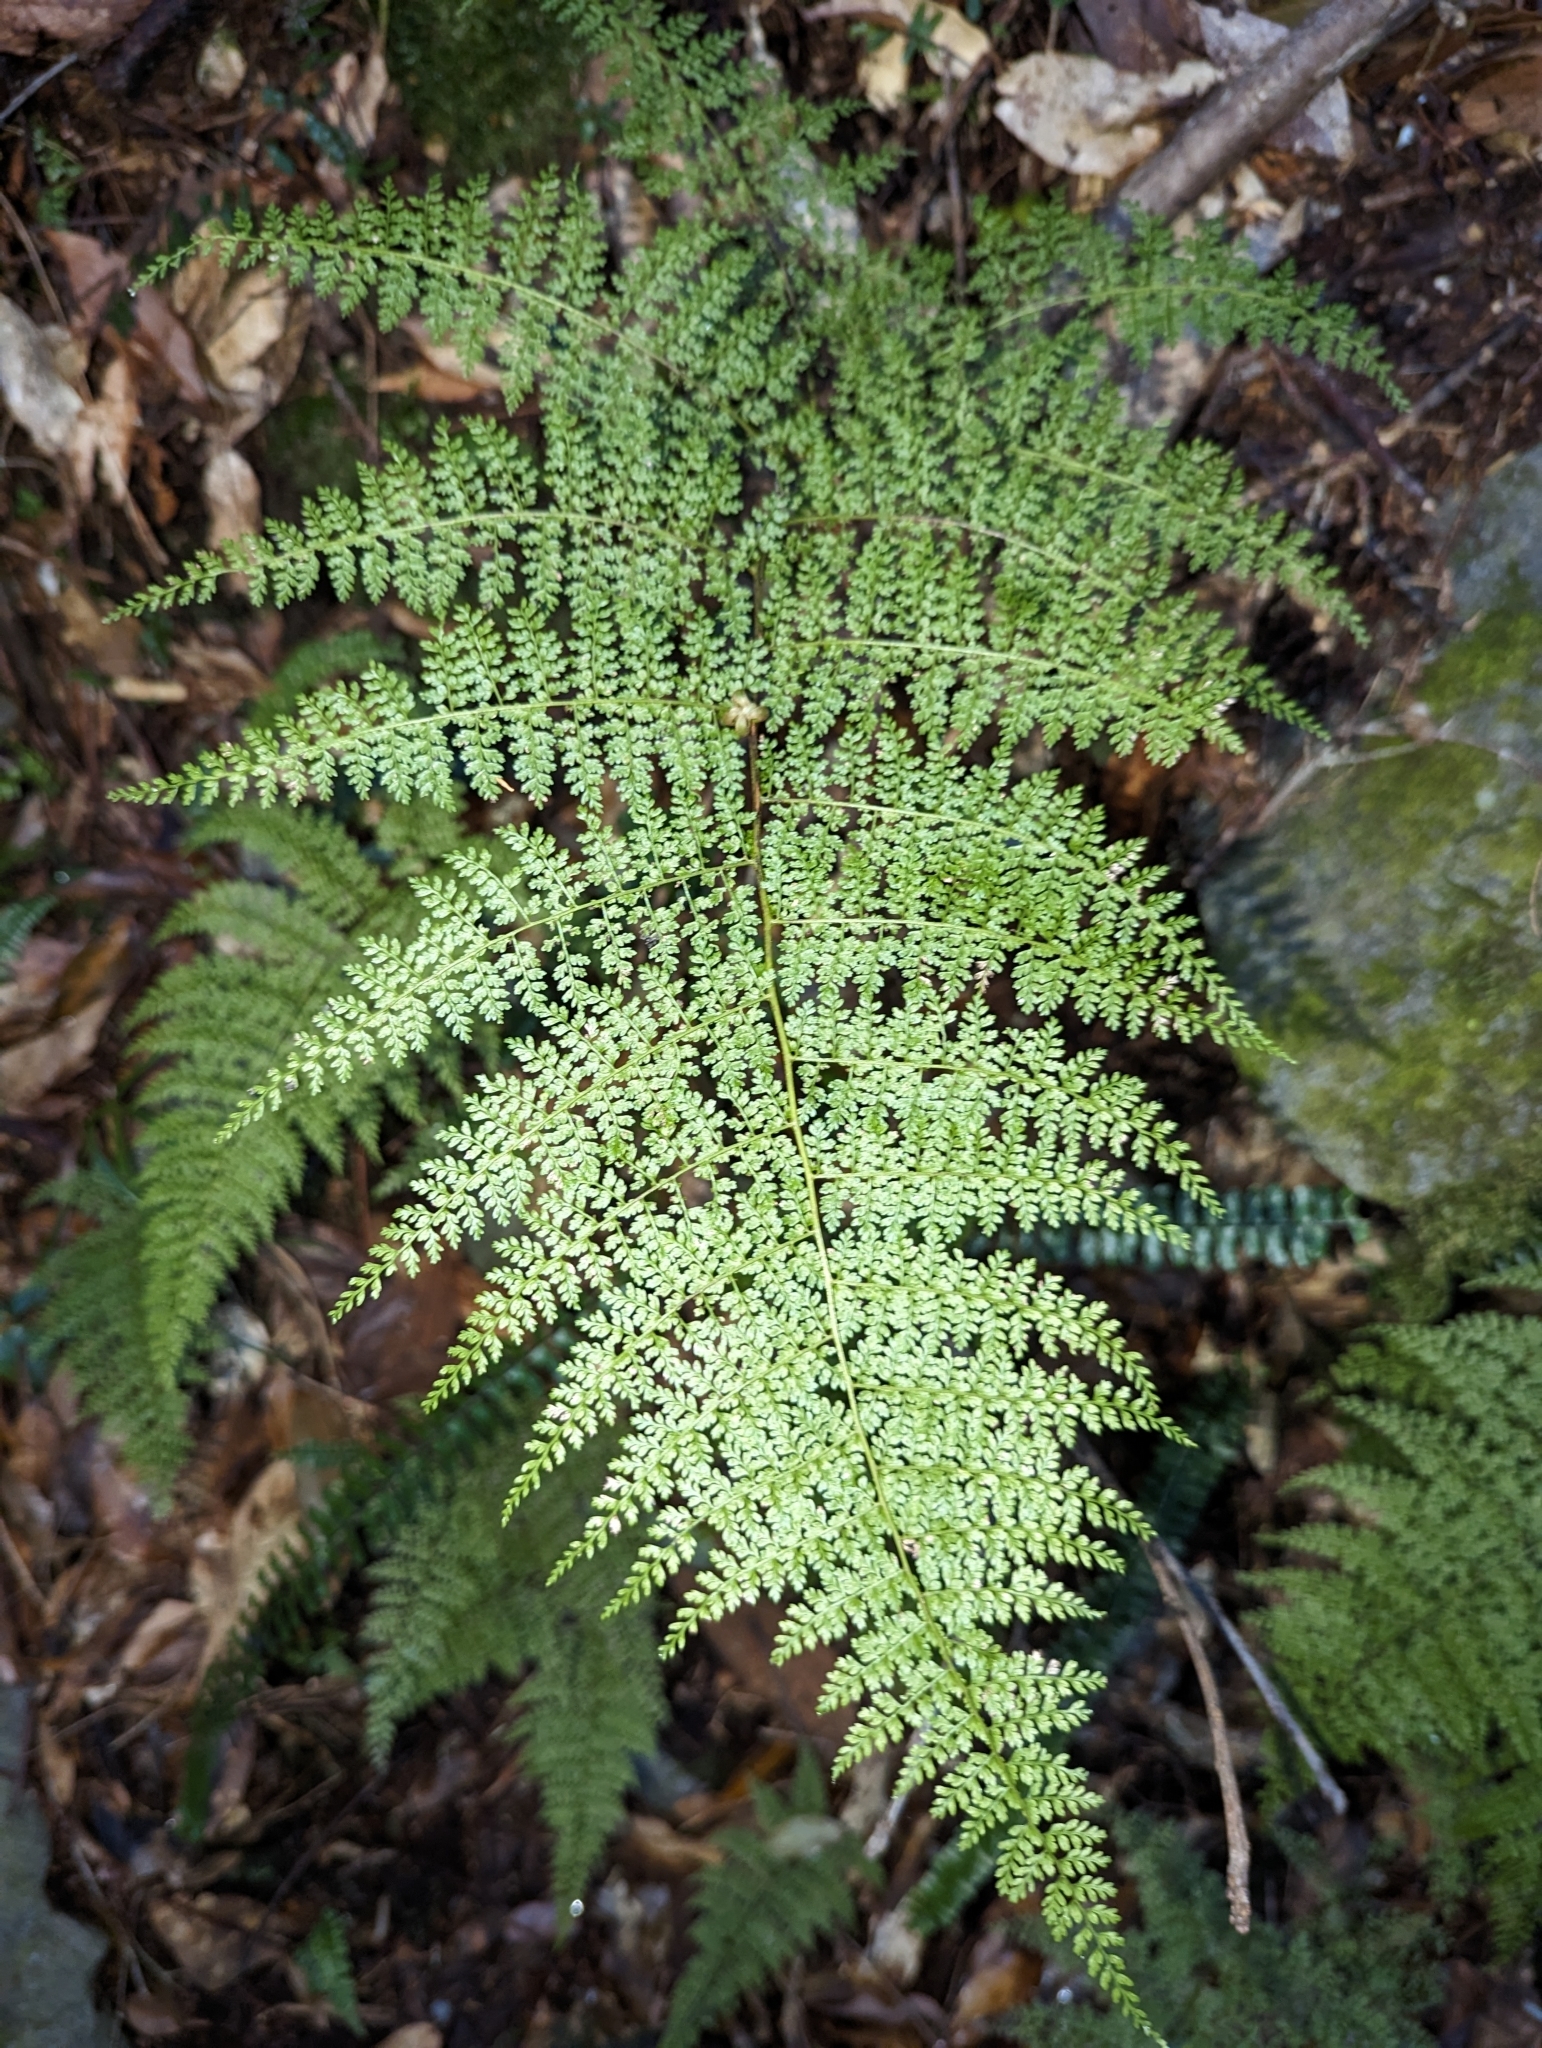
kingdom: Plantae
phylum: Tracheophyta
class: Polypodiopsida
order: Polypodiales
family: Dennstaedtiaceae
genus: Monachosorum
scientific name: Monachosorum henryi
